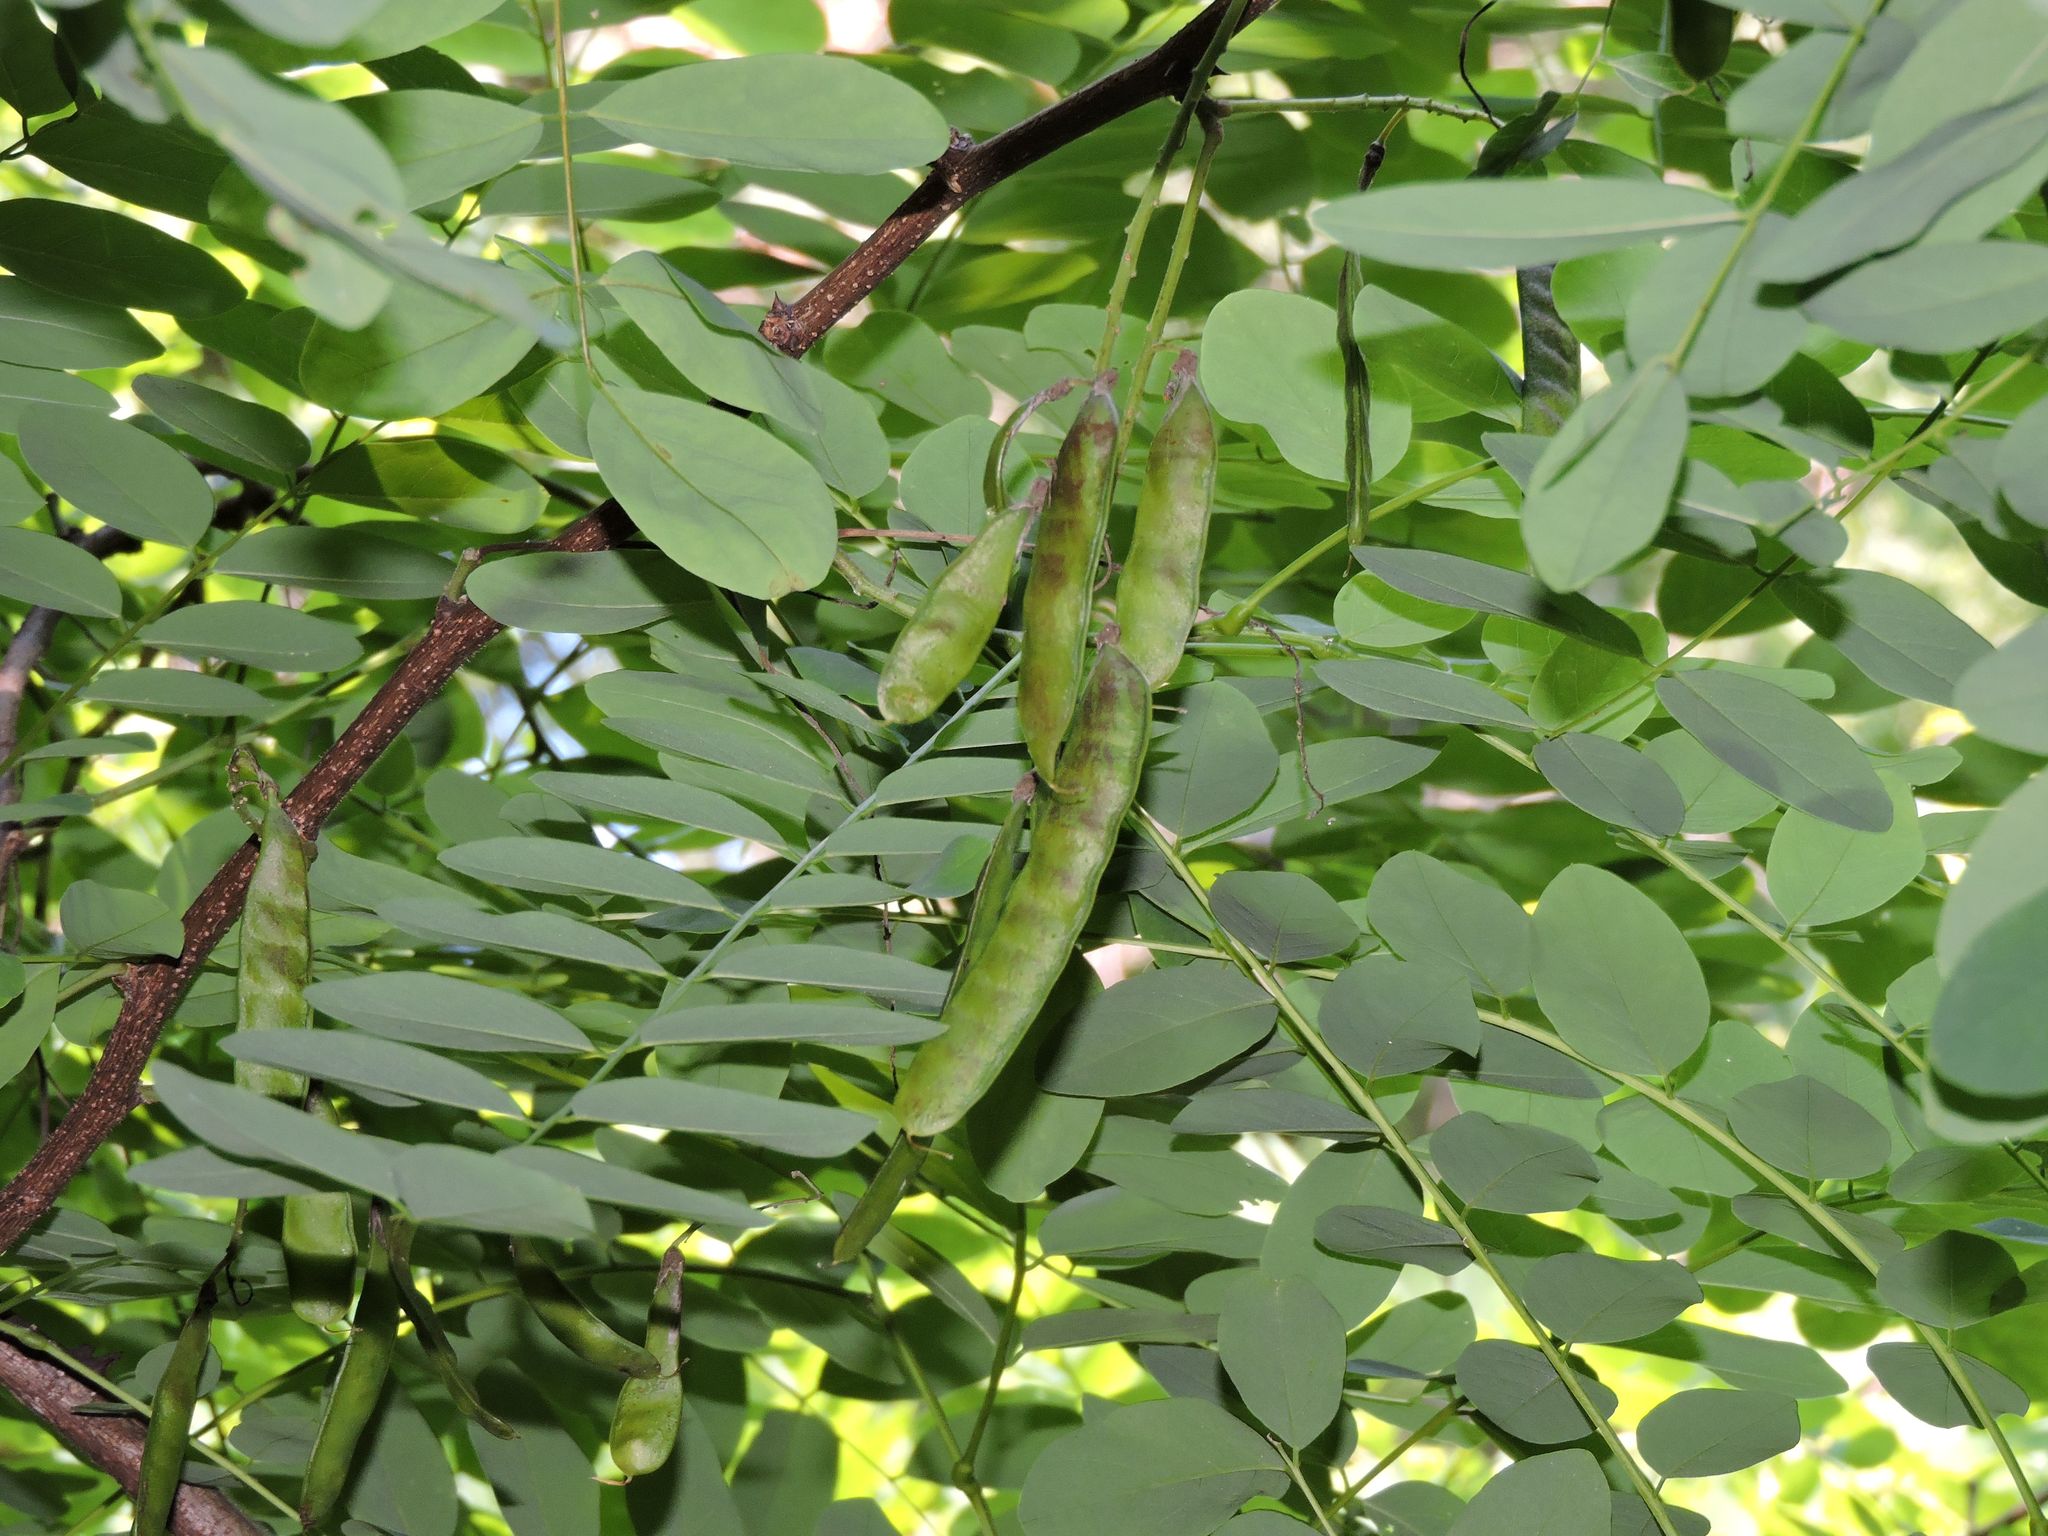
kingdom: Plantae
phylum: Tracheophyta
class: Magnoliopsida
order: Fabales
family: Fabaceae
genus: Robinia
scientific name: Robinia pseudoacacia
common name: Black locust
